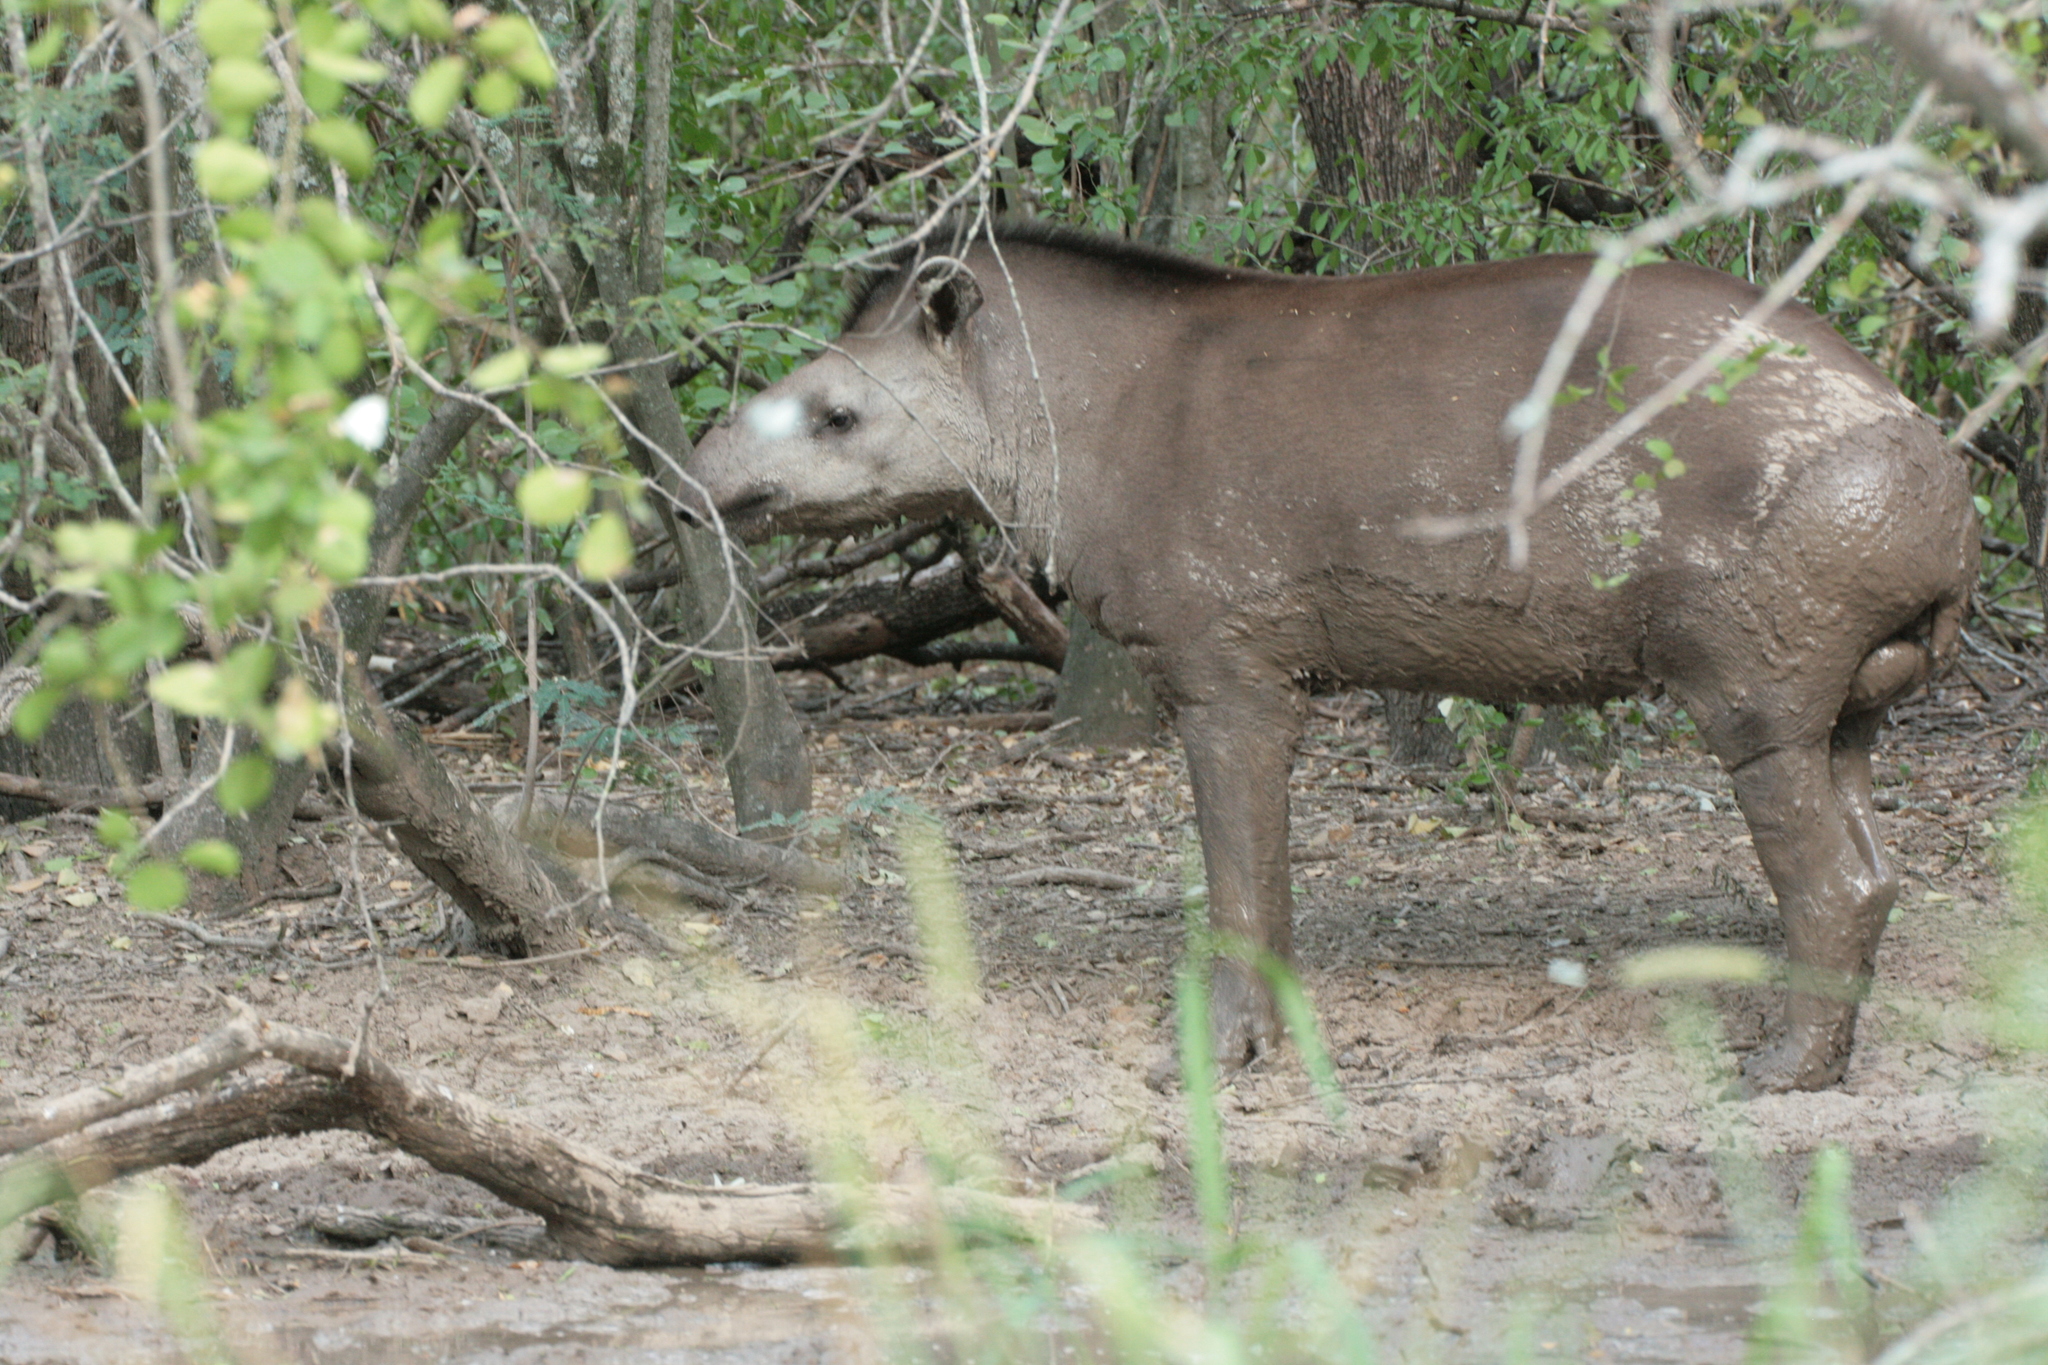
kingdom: Animalia
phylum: Chordata
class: Mammalia
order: Perissodactyla
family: Tapiridae
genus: Tapirus
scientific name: Tapirus terrestris
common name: Brazilian tapir
